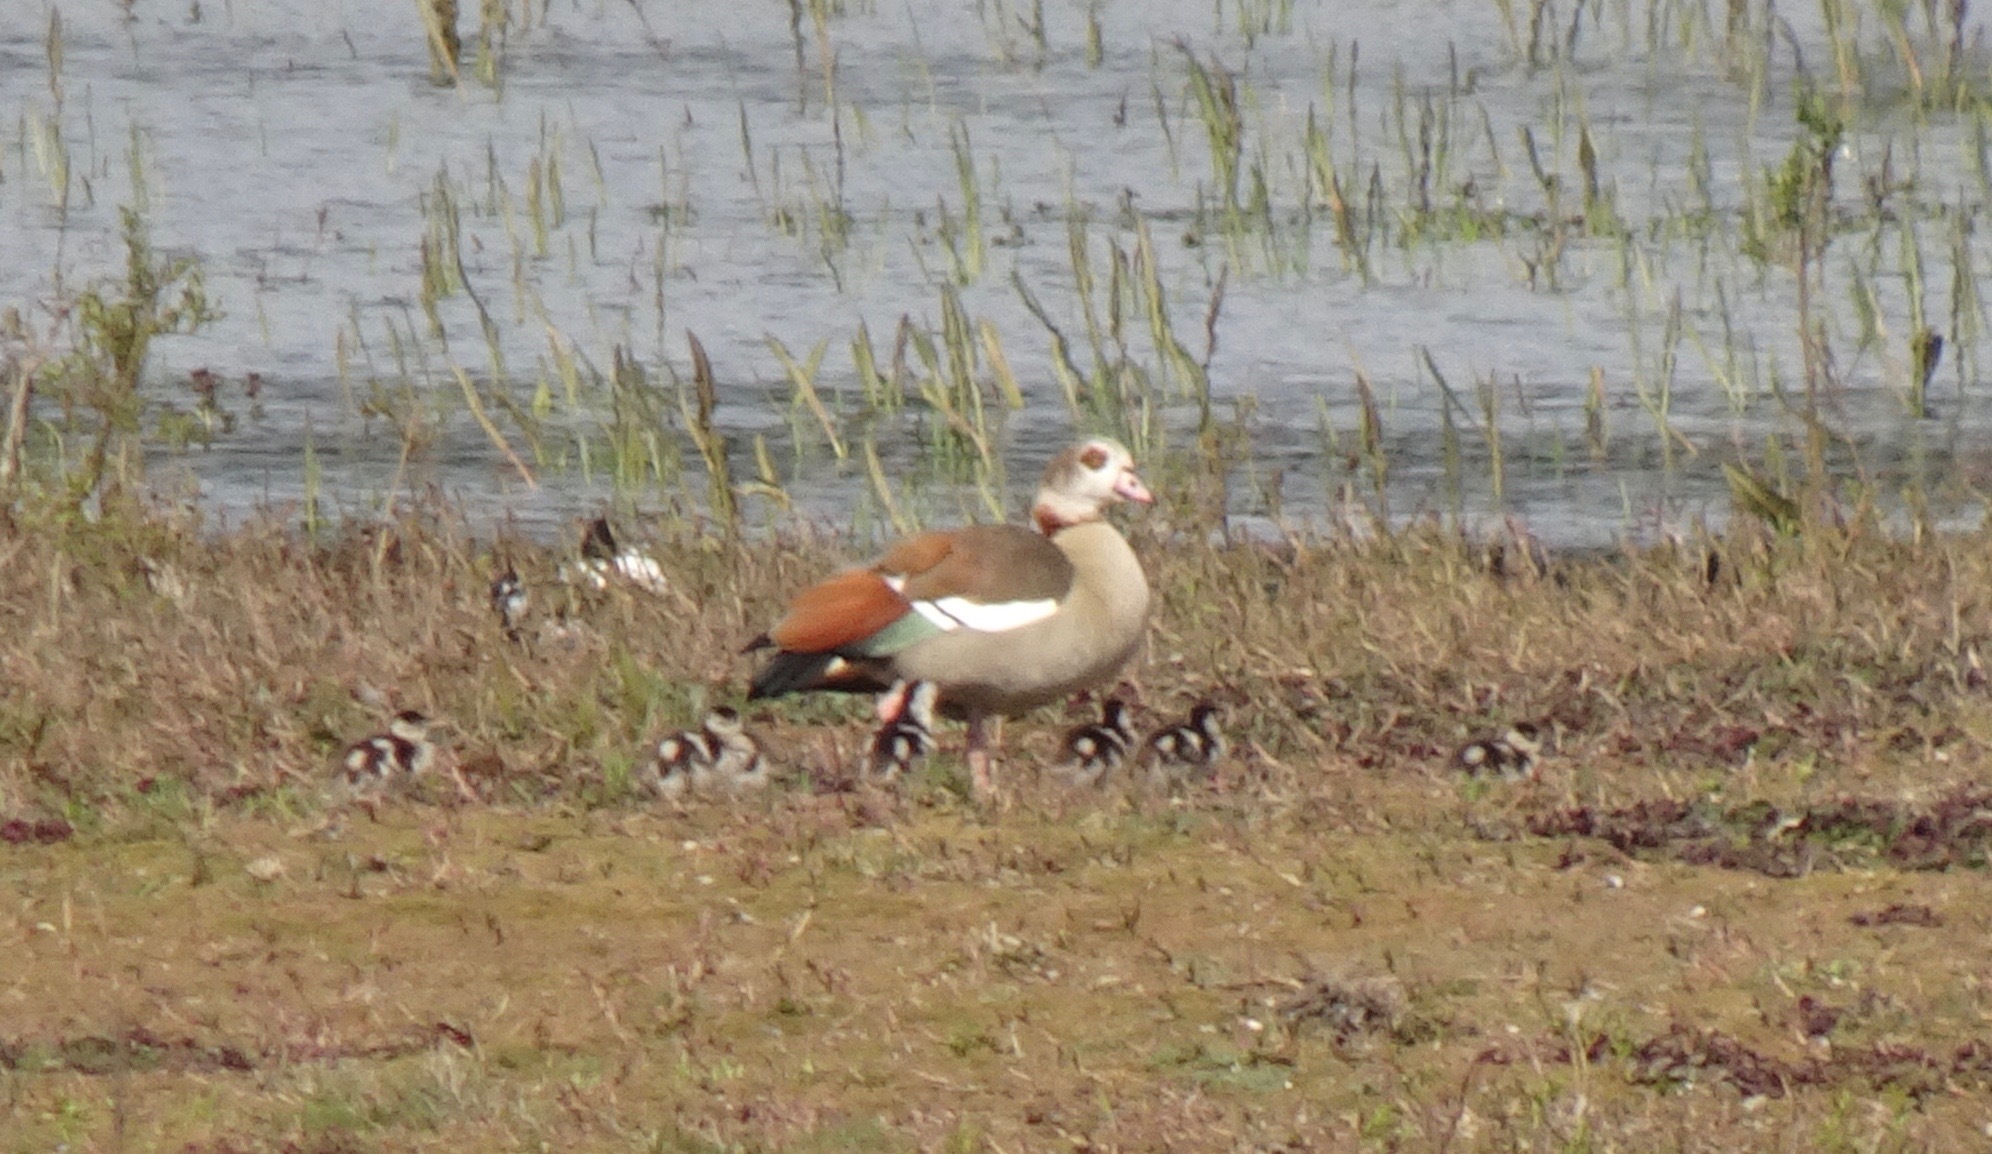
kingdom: Animalia
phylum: Chordata
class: Aves
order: Anseriformes
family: Anatidae
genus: Alopochen
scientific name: Alopochen aegyptiaca
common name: Egyptian goose
